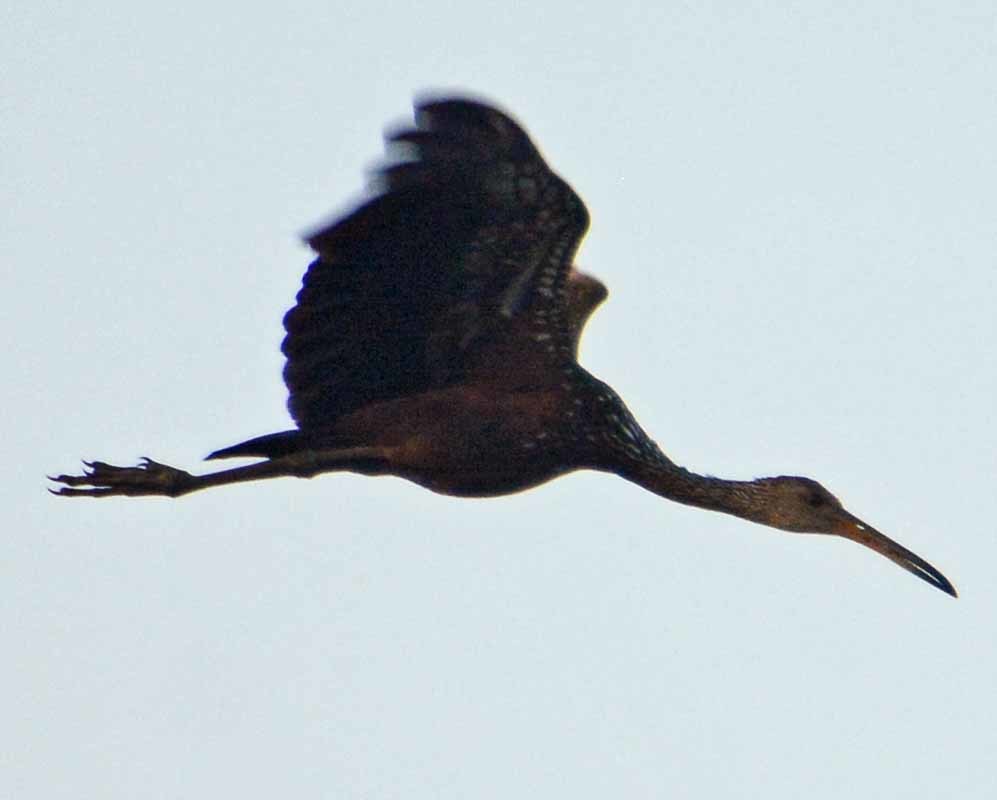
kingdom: Animalia
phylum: Chordata
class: Aves
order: Gruiformes
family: Aramidae
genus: Aramus
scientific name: Aramus guarauna
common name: Limpkin
